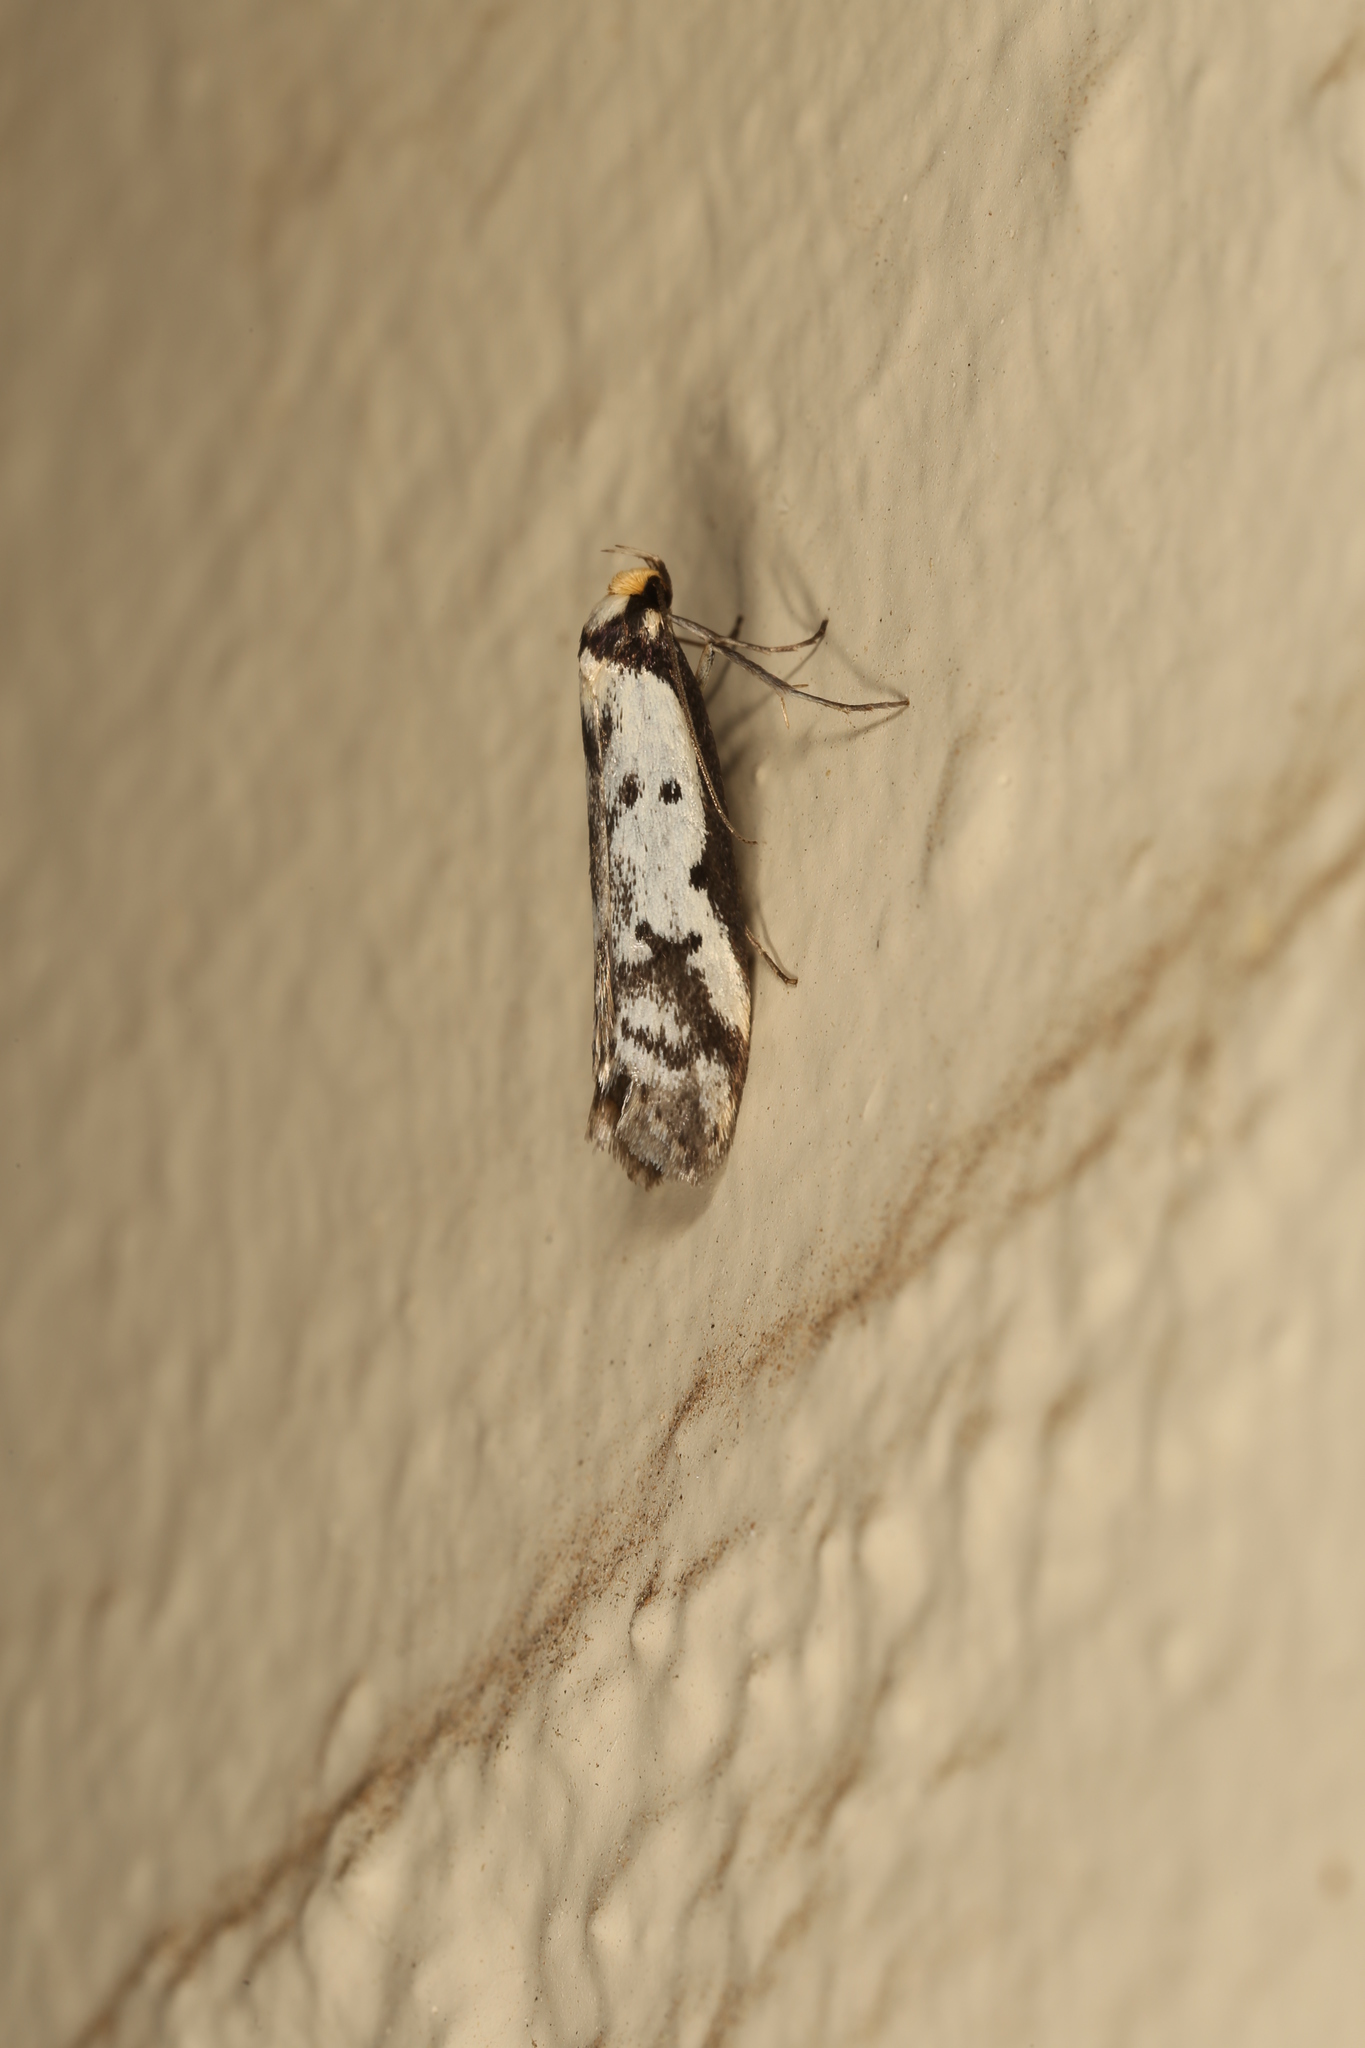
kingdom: Animalia
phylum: Arthropoda
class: Insecta
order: Lepidoptera
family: Oecophoridae
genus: Philobota
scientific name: Philobota lysizona
